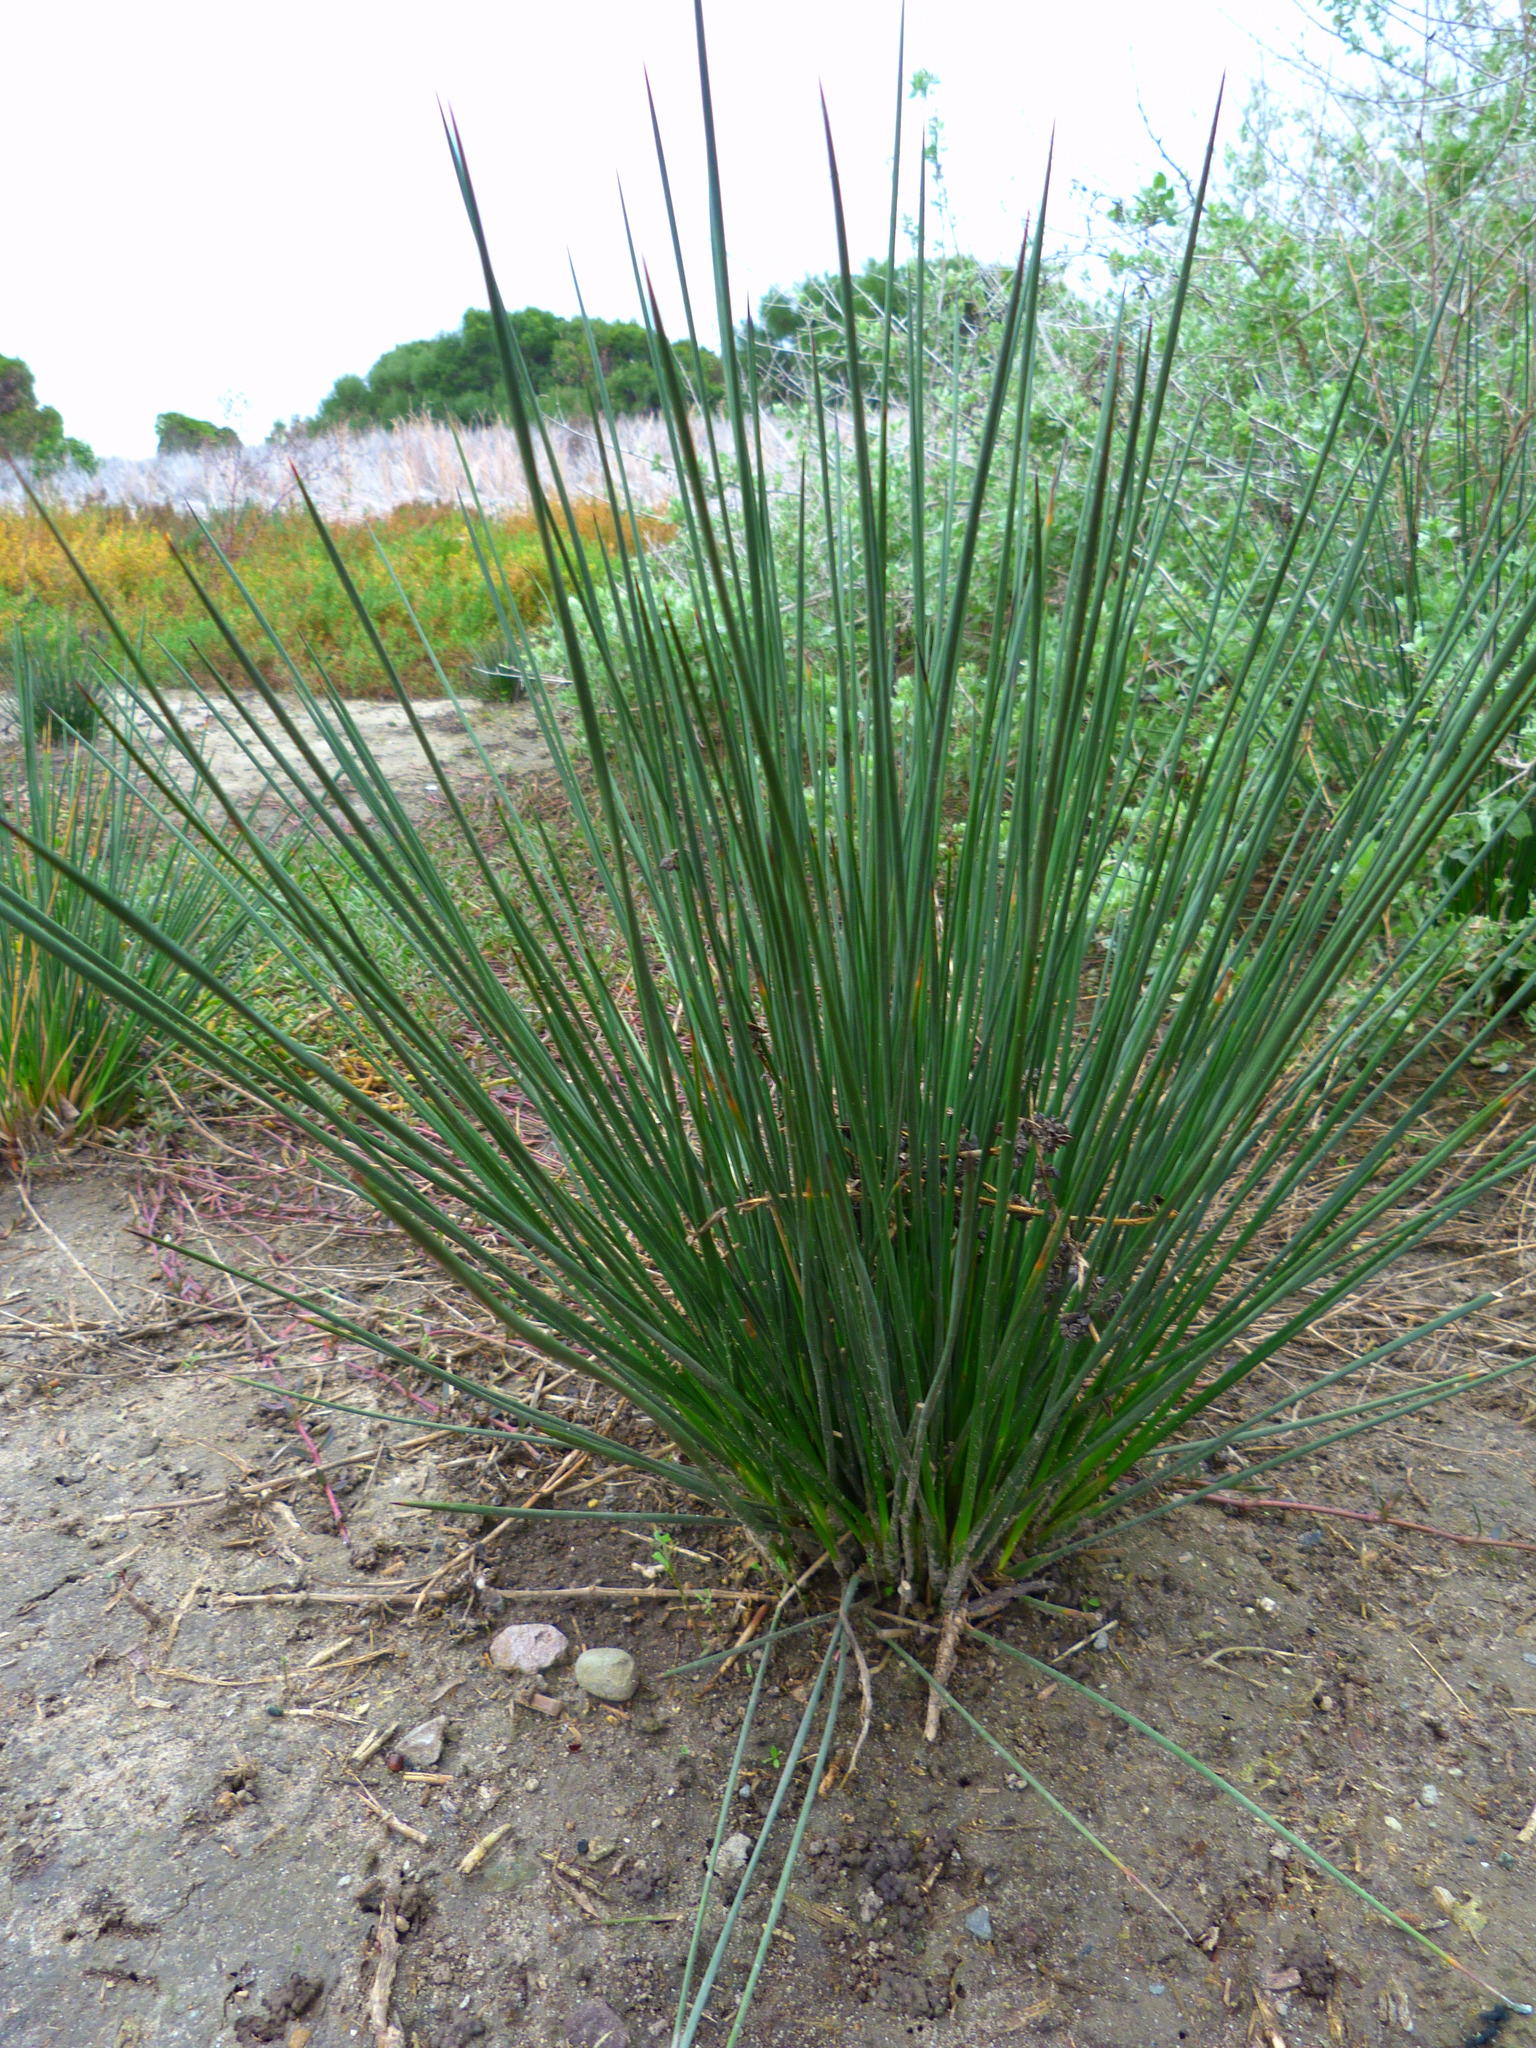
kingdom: Plantae
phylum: Tracheophyta
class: Liliopsida
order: Poales
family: Juncaceae
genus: Juncus
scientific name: Juncus acutus
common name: Sharp rush
